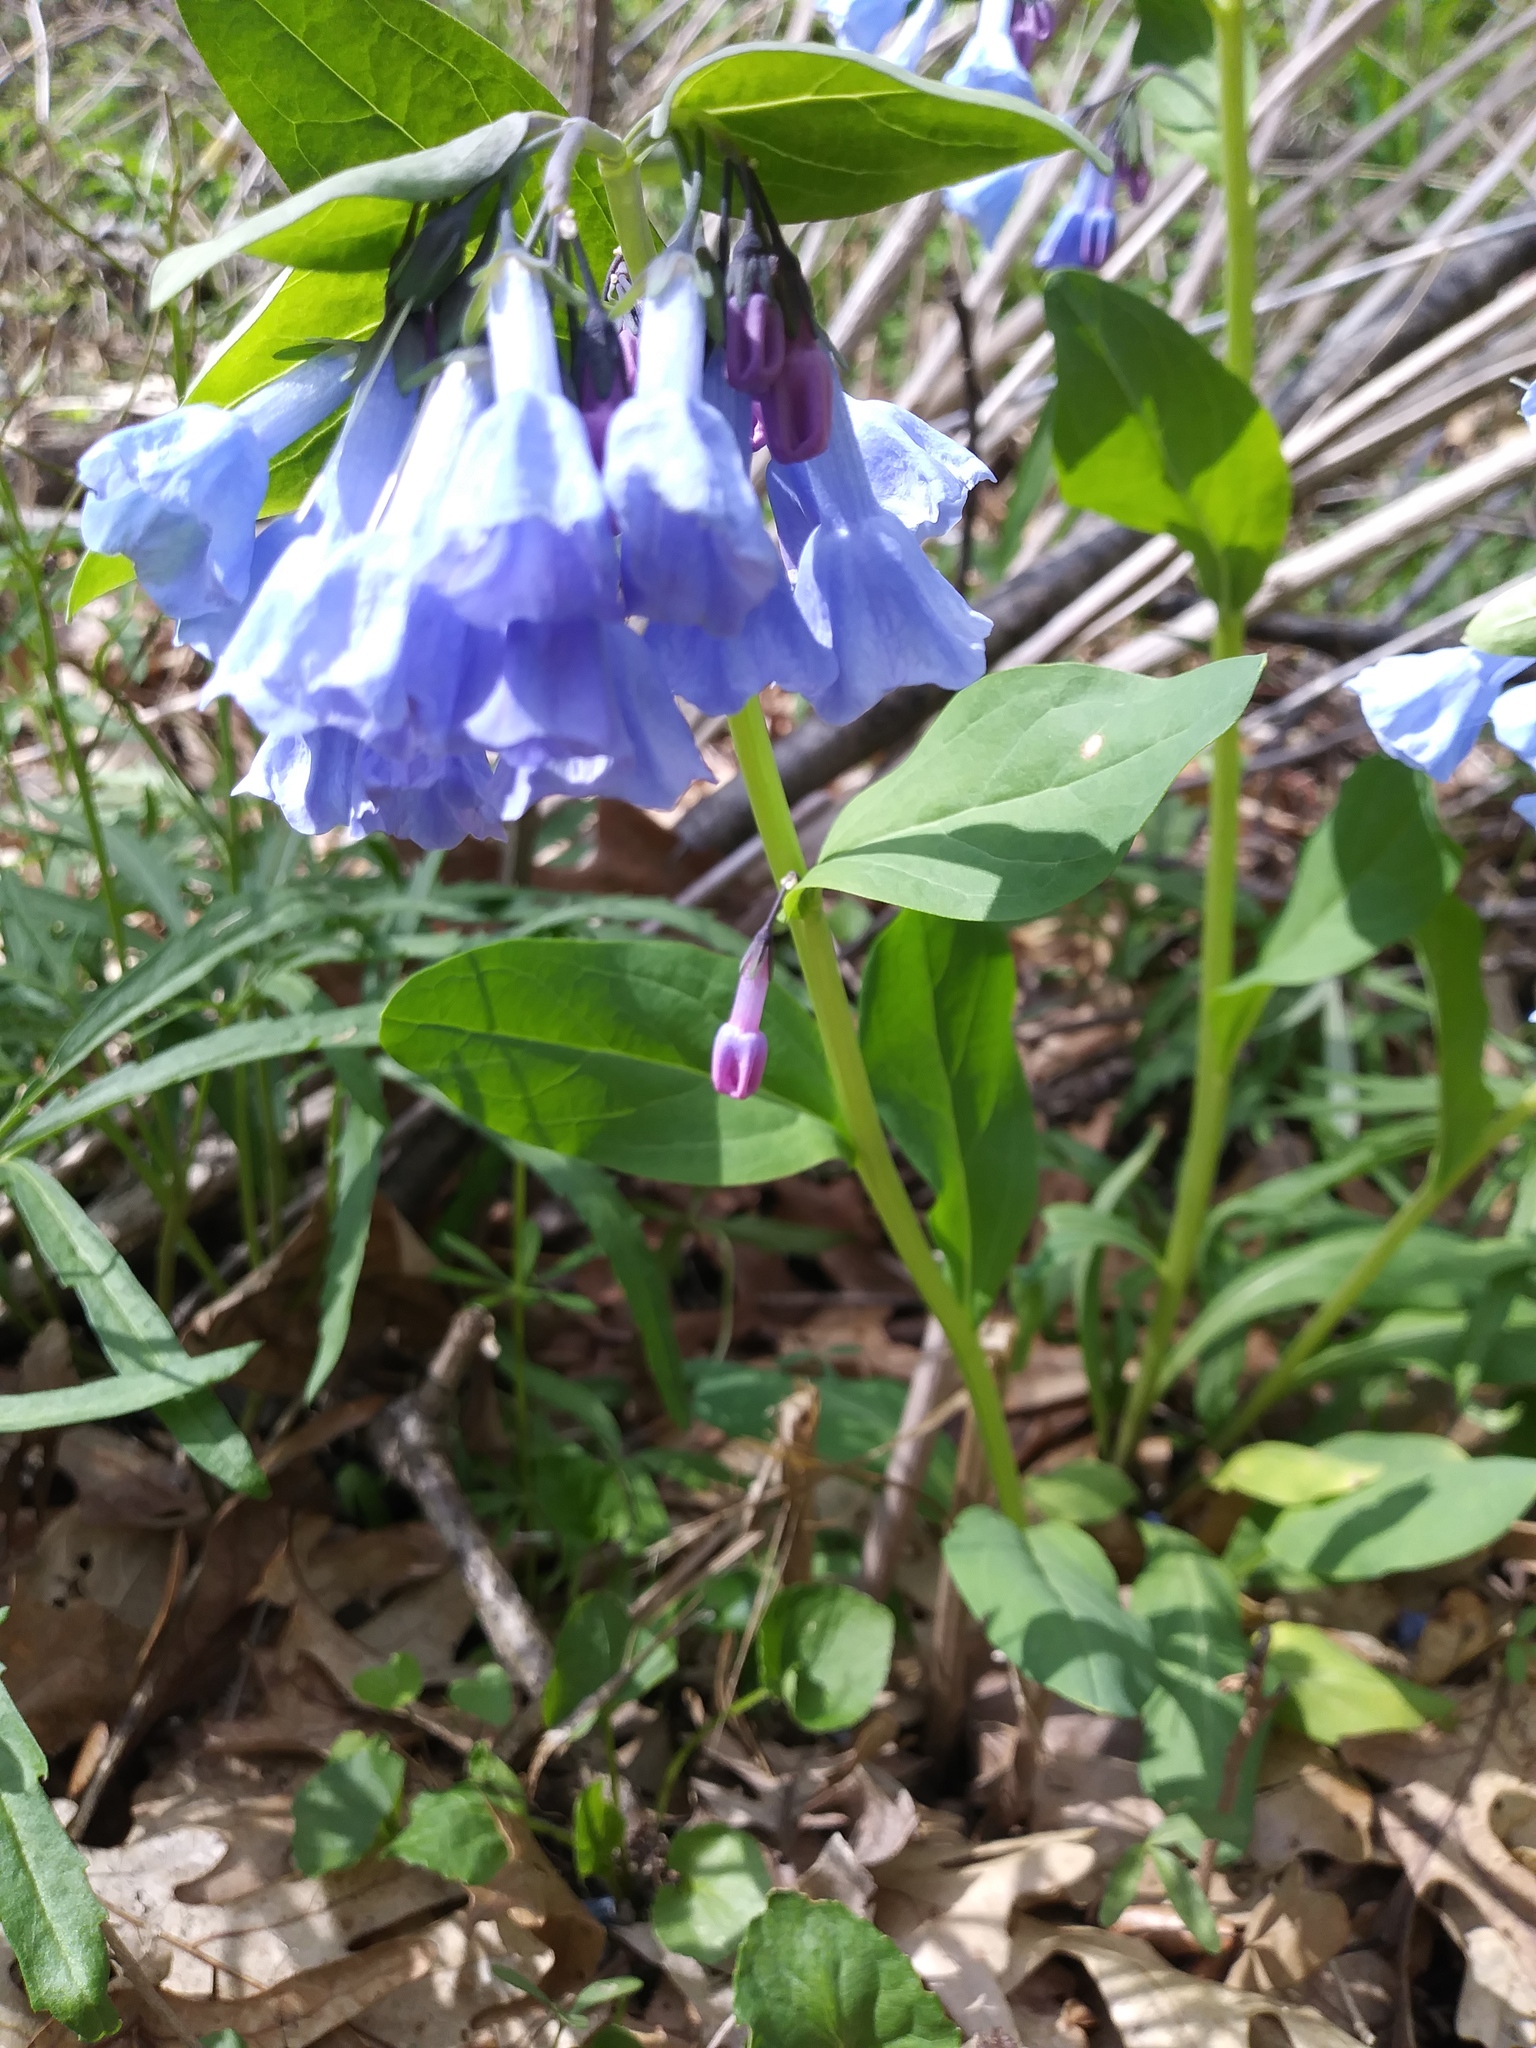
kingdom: Plantae
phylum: Tracheophyta
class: Magnoliopsida
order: Boraginales
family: Boraginaceae
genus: Mertensia
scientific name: Mertensia virginica
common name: Virginia bluebells
